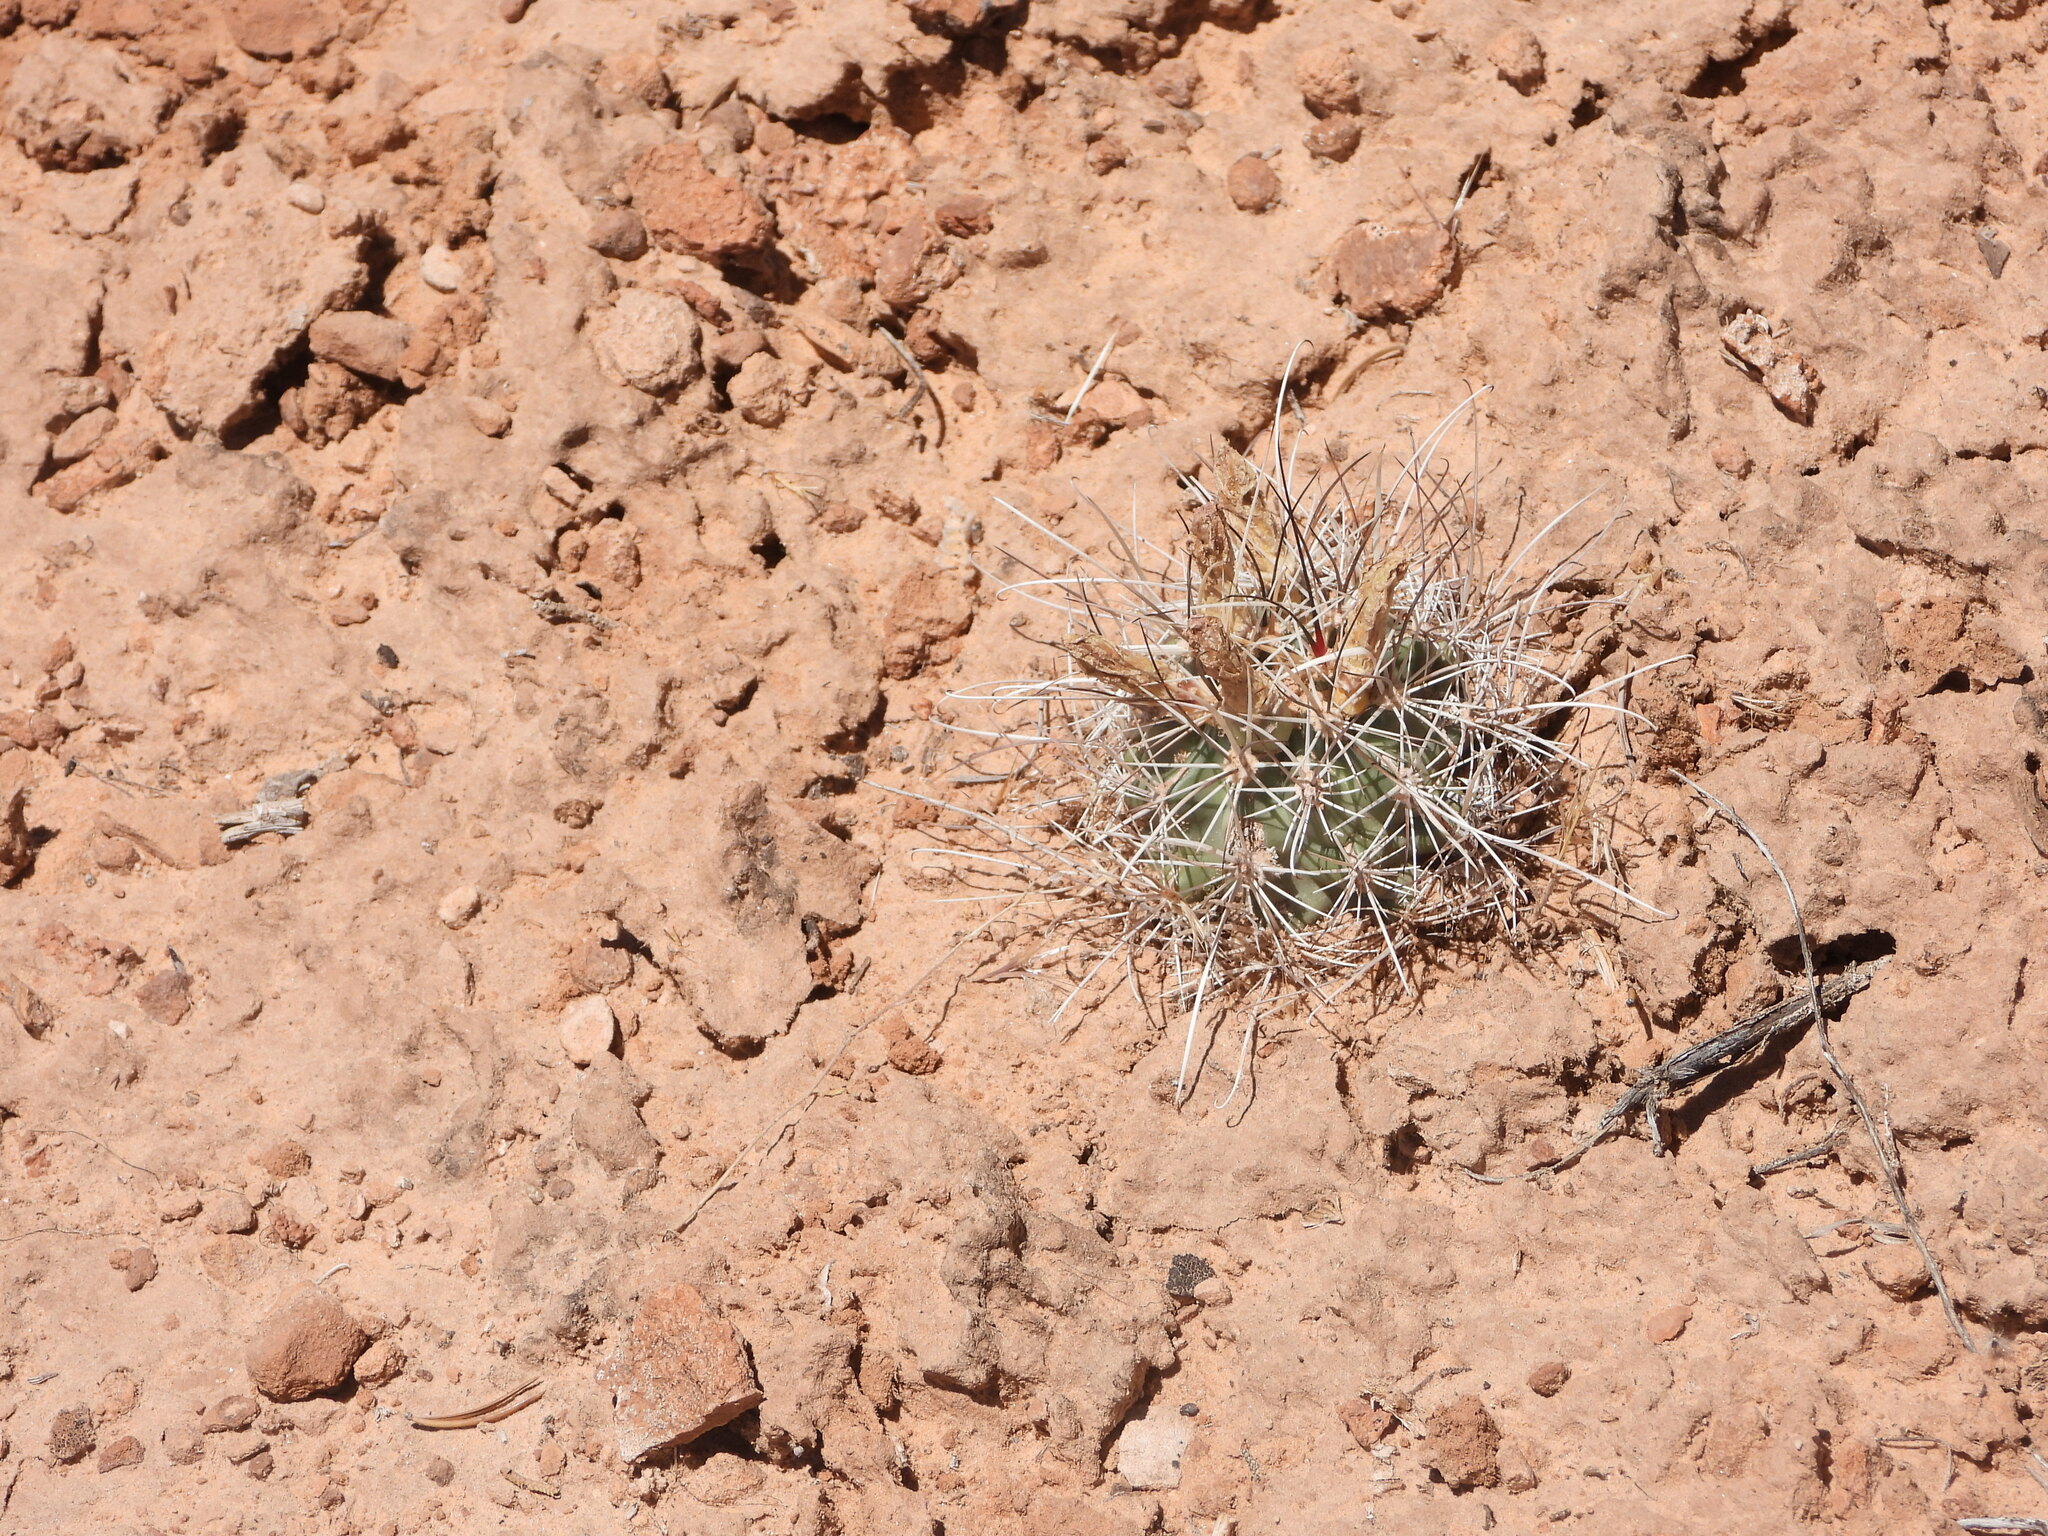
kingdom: Plantae
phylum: Tracheophyta
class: Magnoliopsida
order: Caryophyllales
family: Cactaceae
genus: Sclerocactus
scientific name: Sclerocactus parviflorus
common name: Small-flower fishhook cactus
